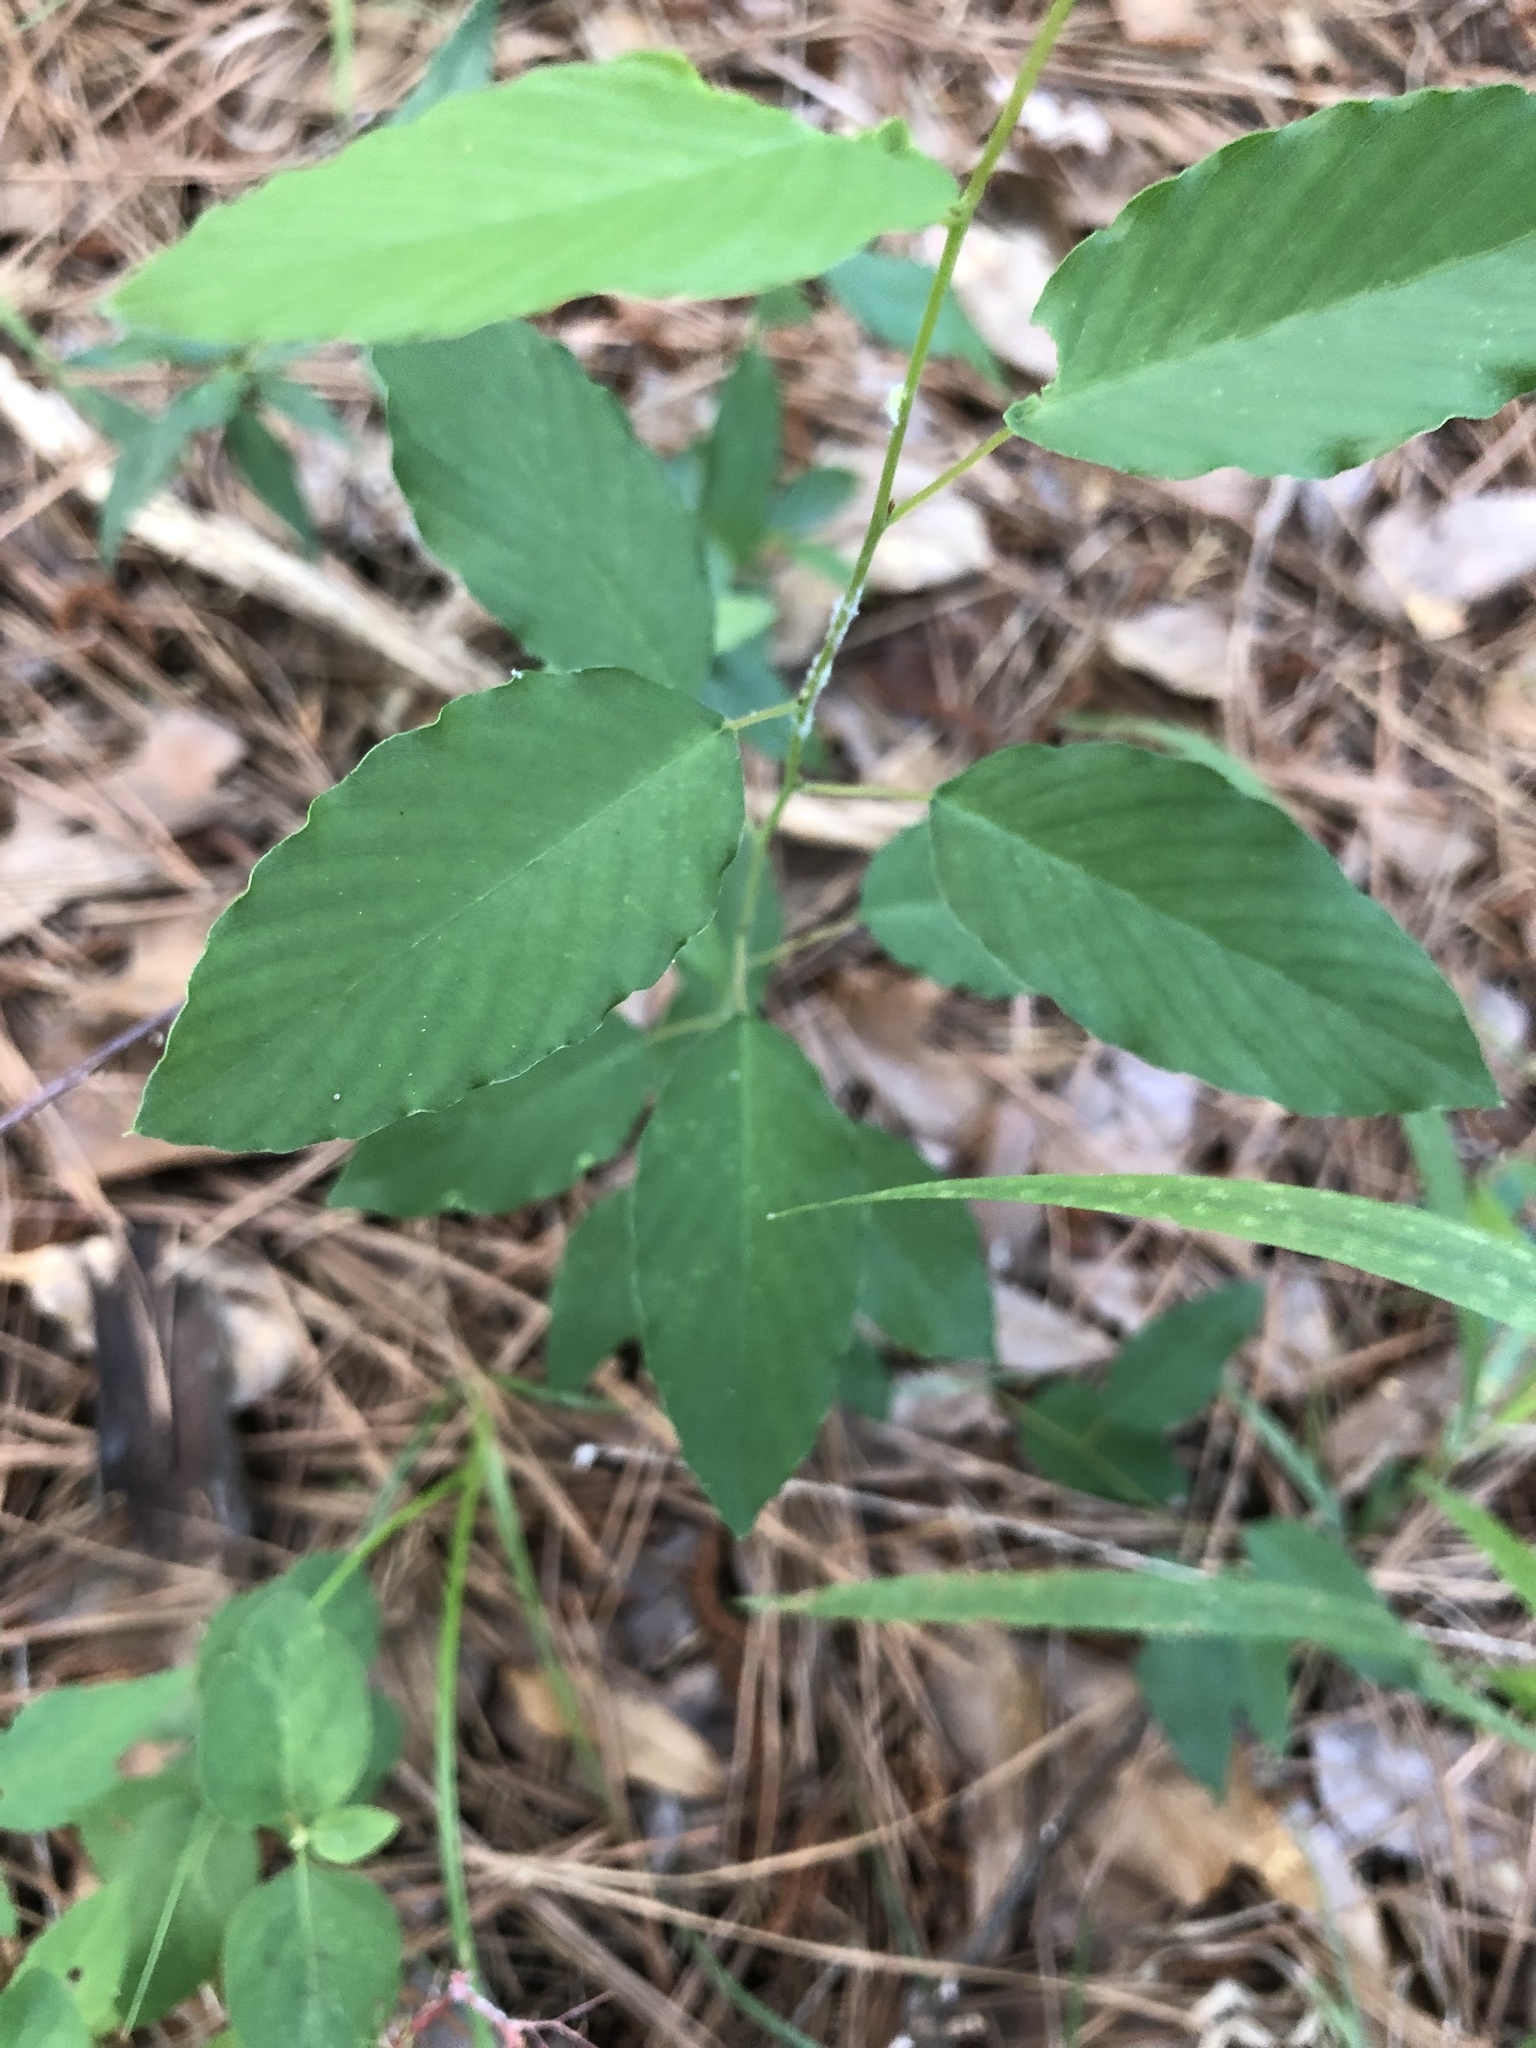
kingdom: Plantae
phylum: Tracheophyta
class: Magnoliopsida
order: Rosales
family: Rhamnaceae
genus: Berchemia
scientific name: Berchemia scandens
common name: Supplejack
